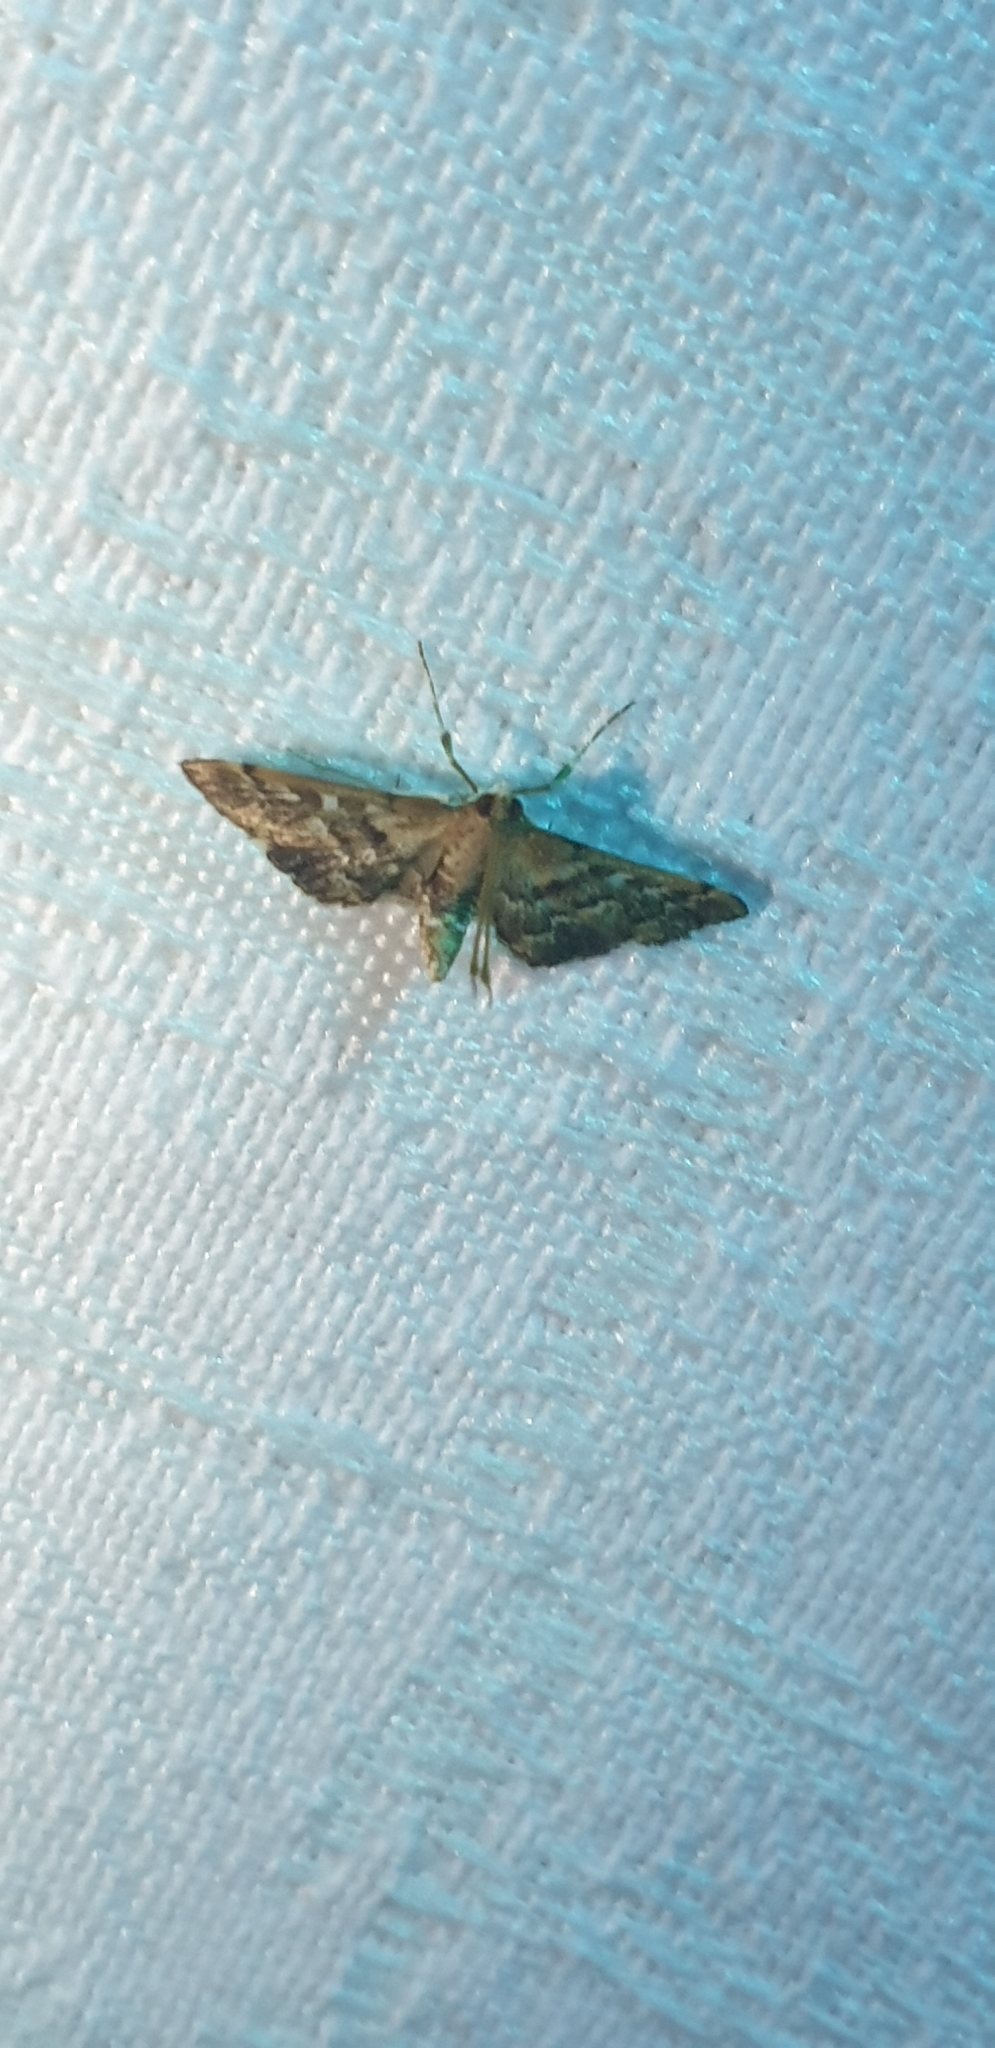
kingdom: Animalia
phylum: Arthropoda
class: Insecta
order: Lepidoptera
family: Crambidae
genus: Nacoleia
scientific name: Nacoleia rhoeoalis
